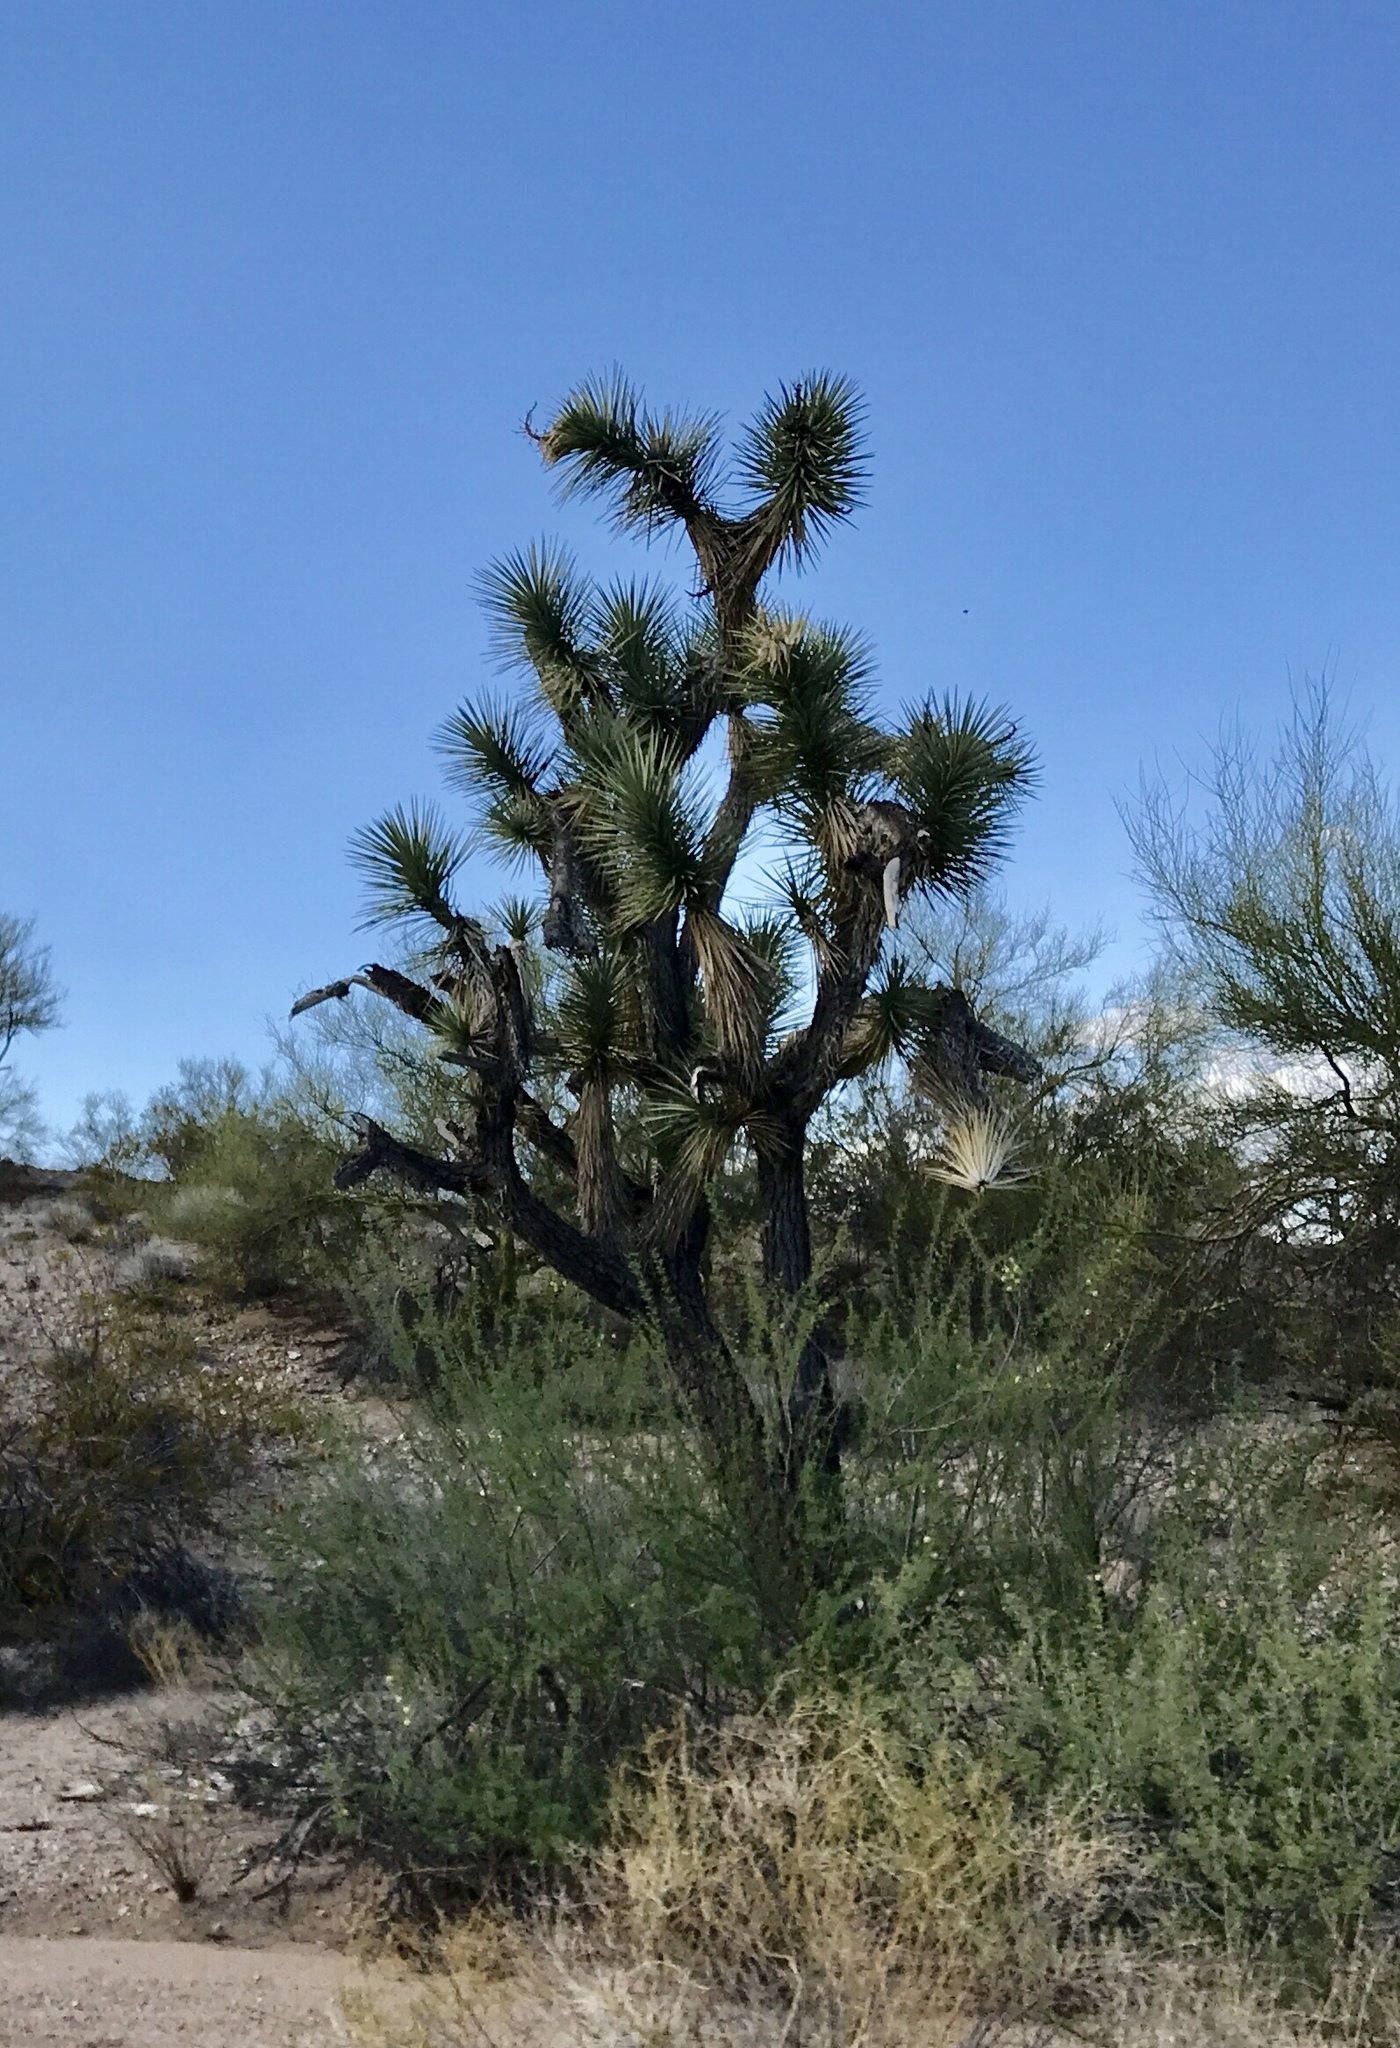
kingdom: Plantae
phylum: Tracheophyta
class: Liliopsida
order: Asparagales
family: Asparagaceae
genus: Yucca
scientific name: Yucca brevifolia
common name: Joshua tree
